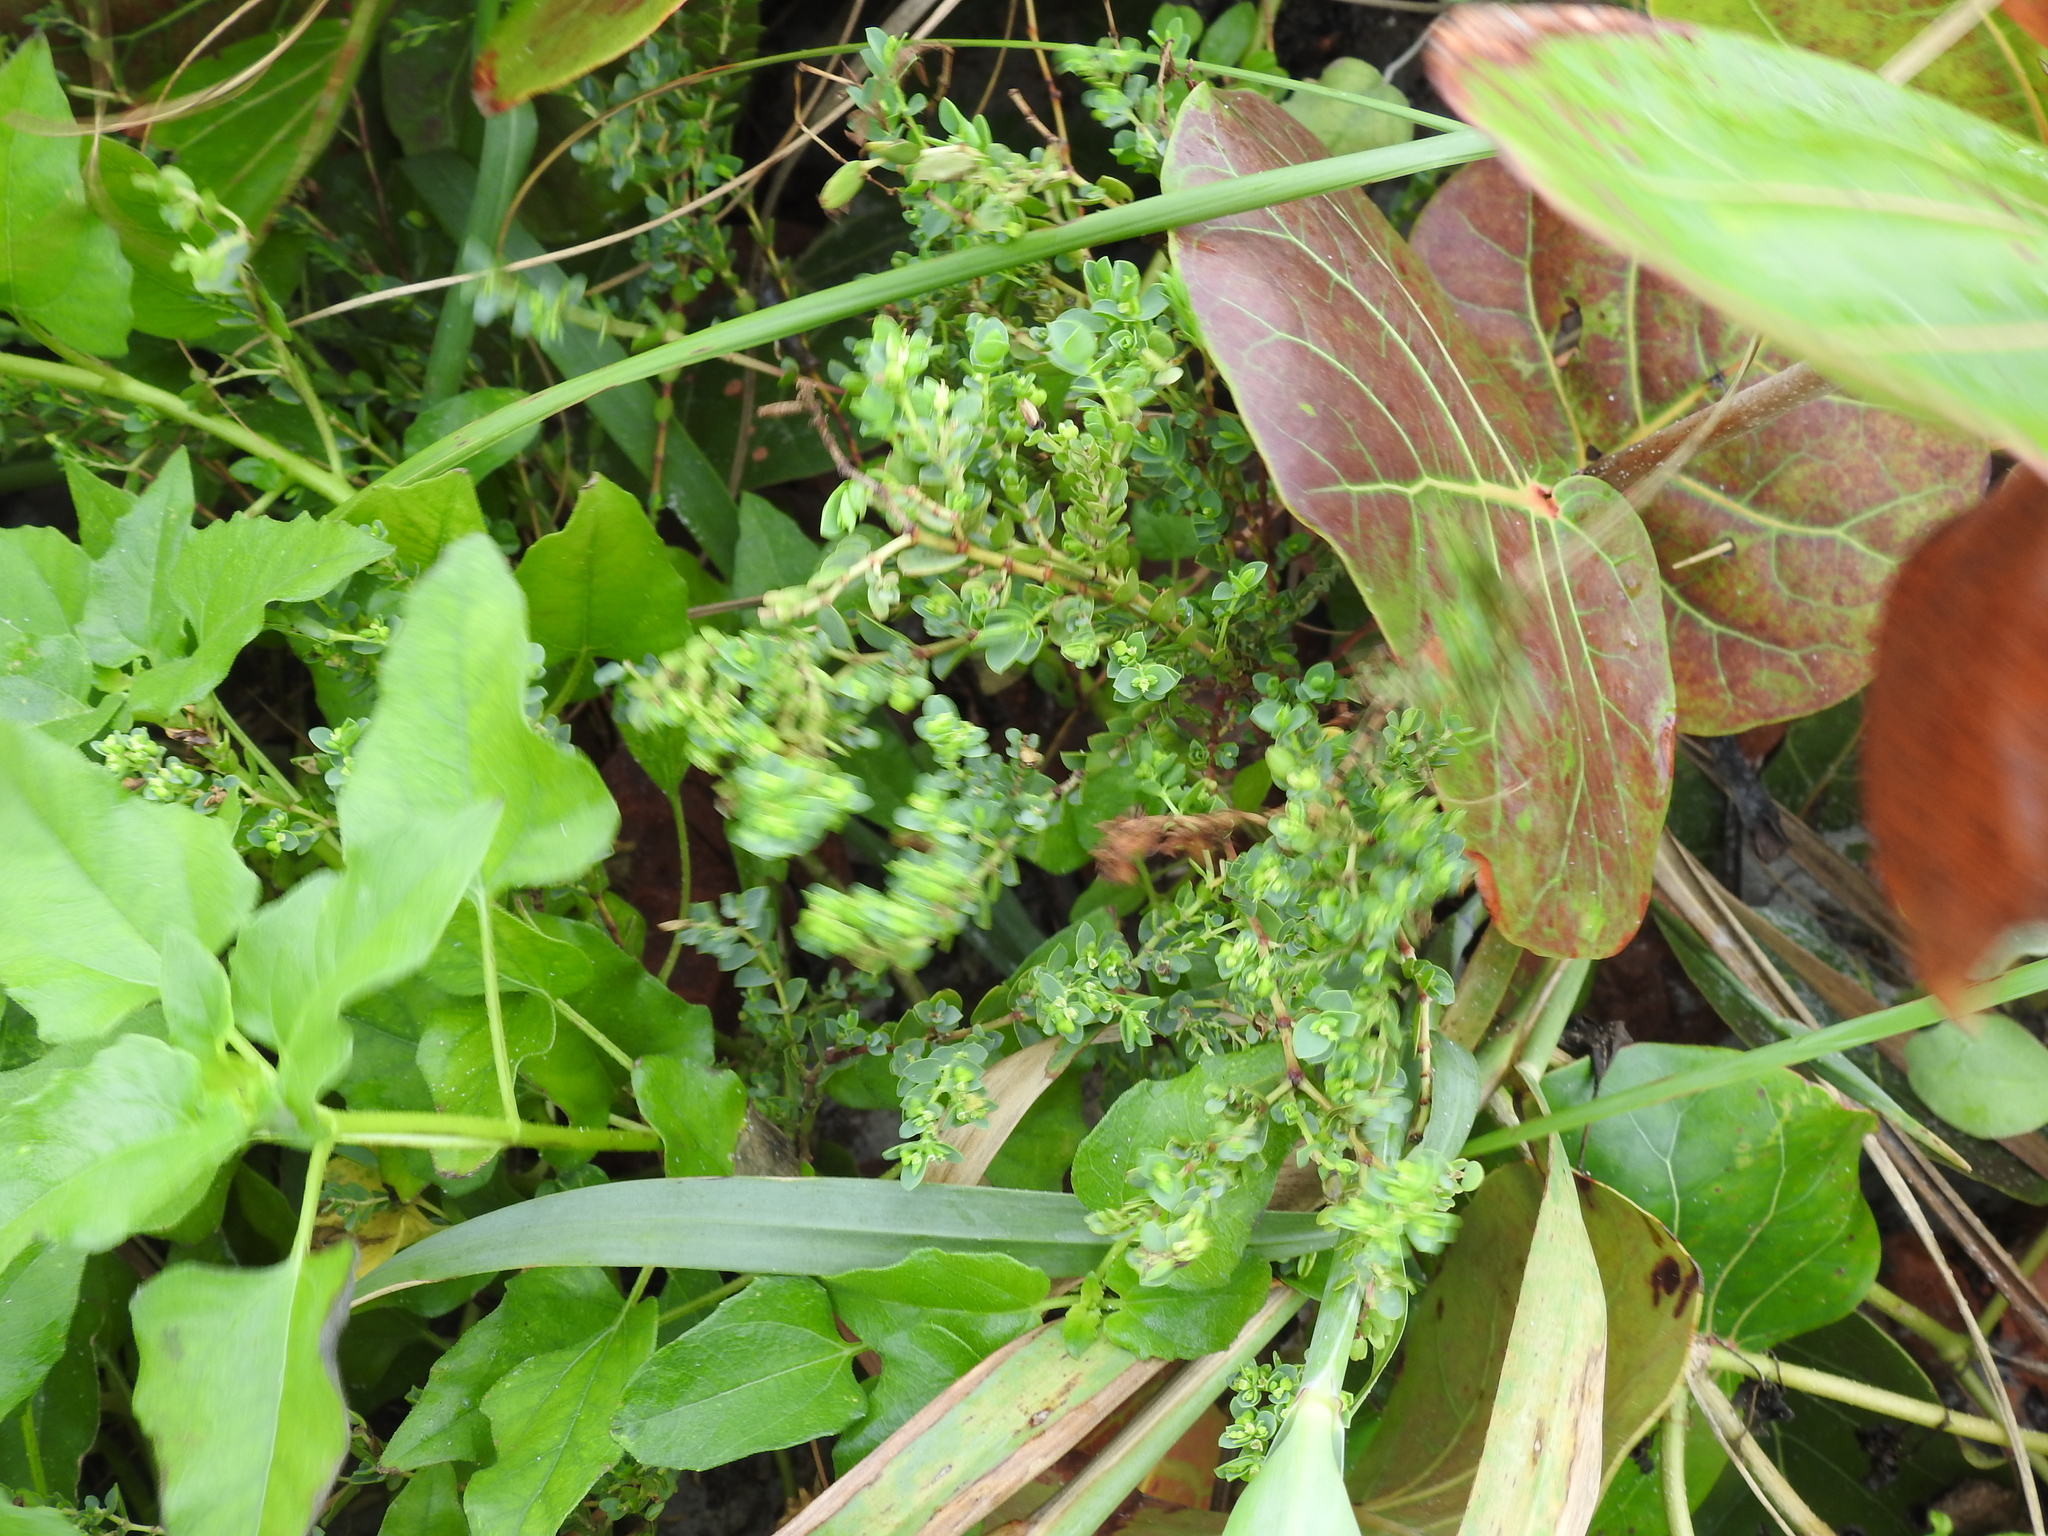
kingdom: Plantae
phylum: Tracheophyta
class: Magnoliopsida
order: Malpighiales
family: Euphorbiaceae
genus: Euphorbia
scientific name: Euphorbia mesembryanthemifolia
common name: Coastal beach sandmat
